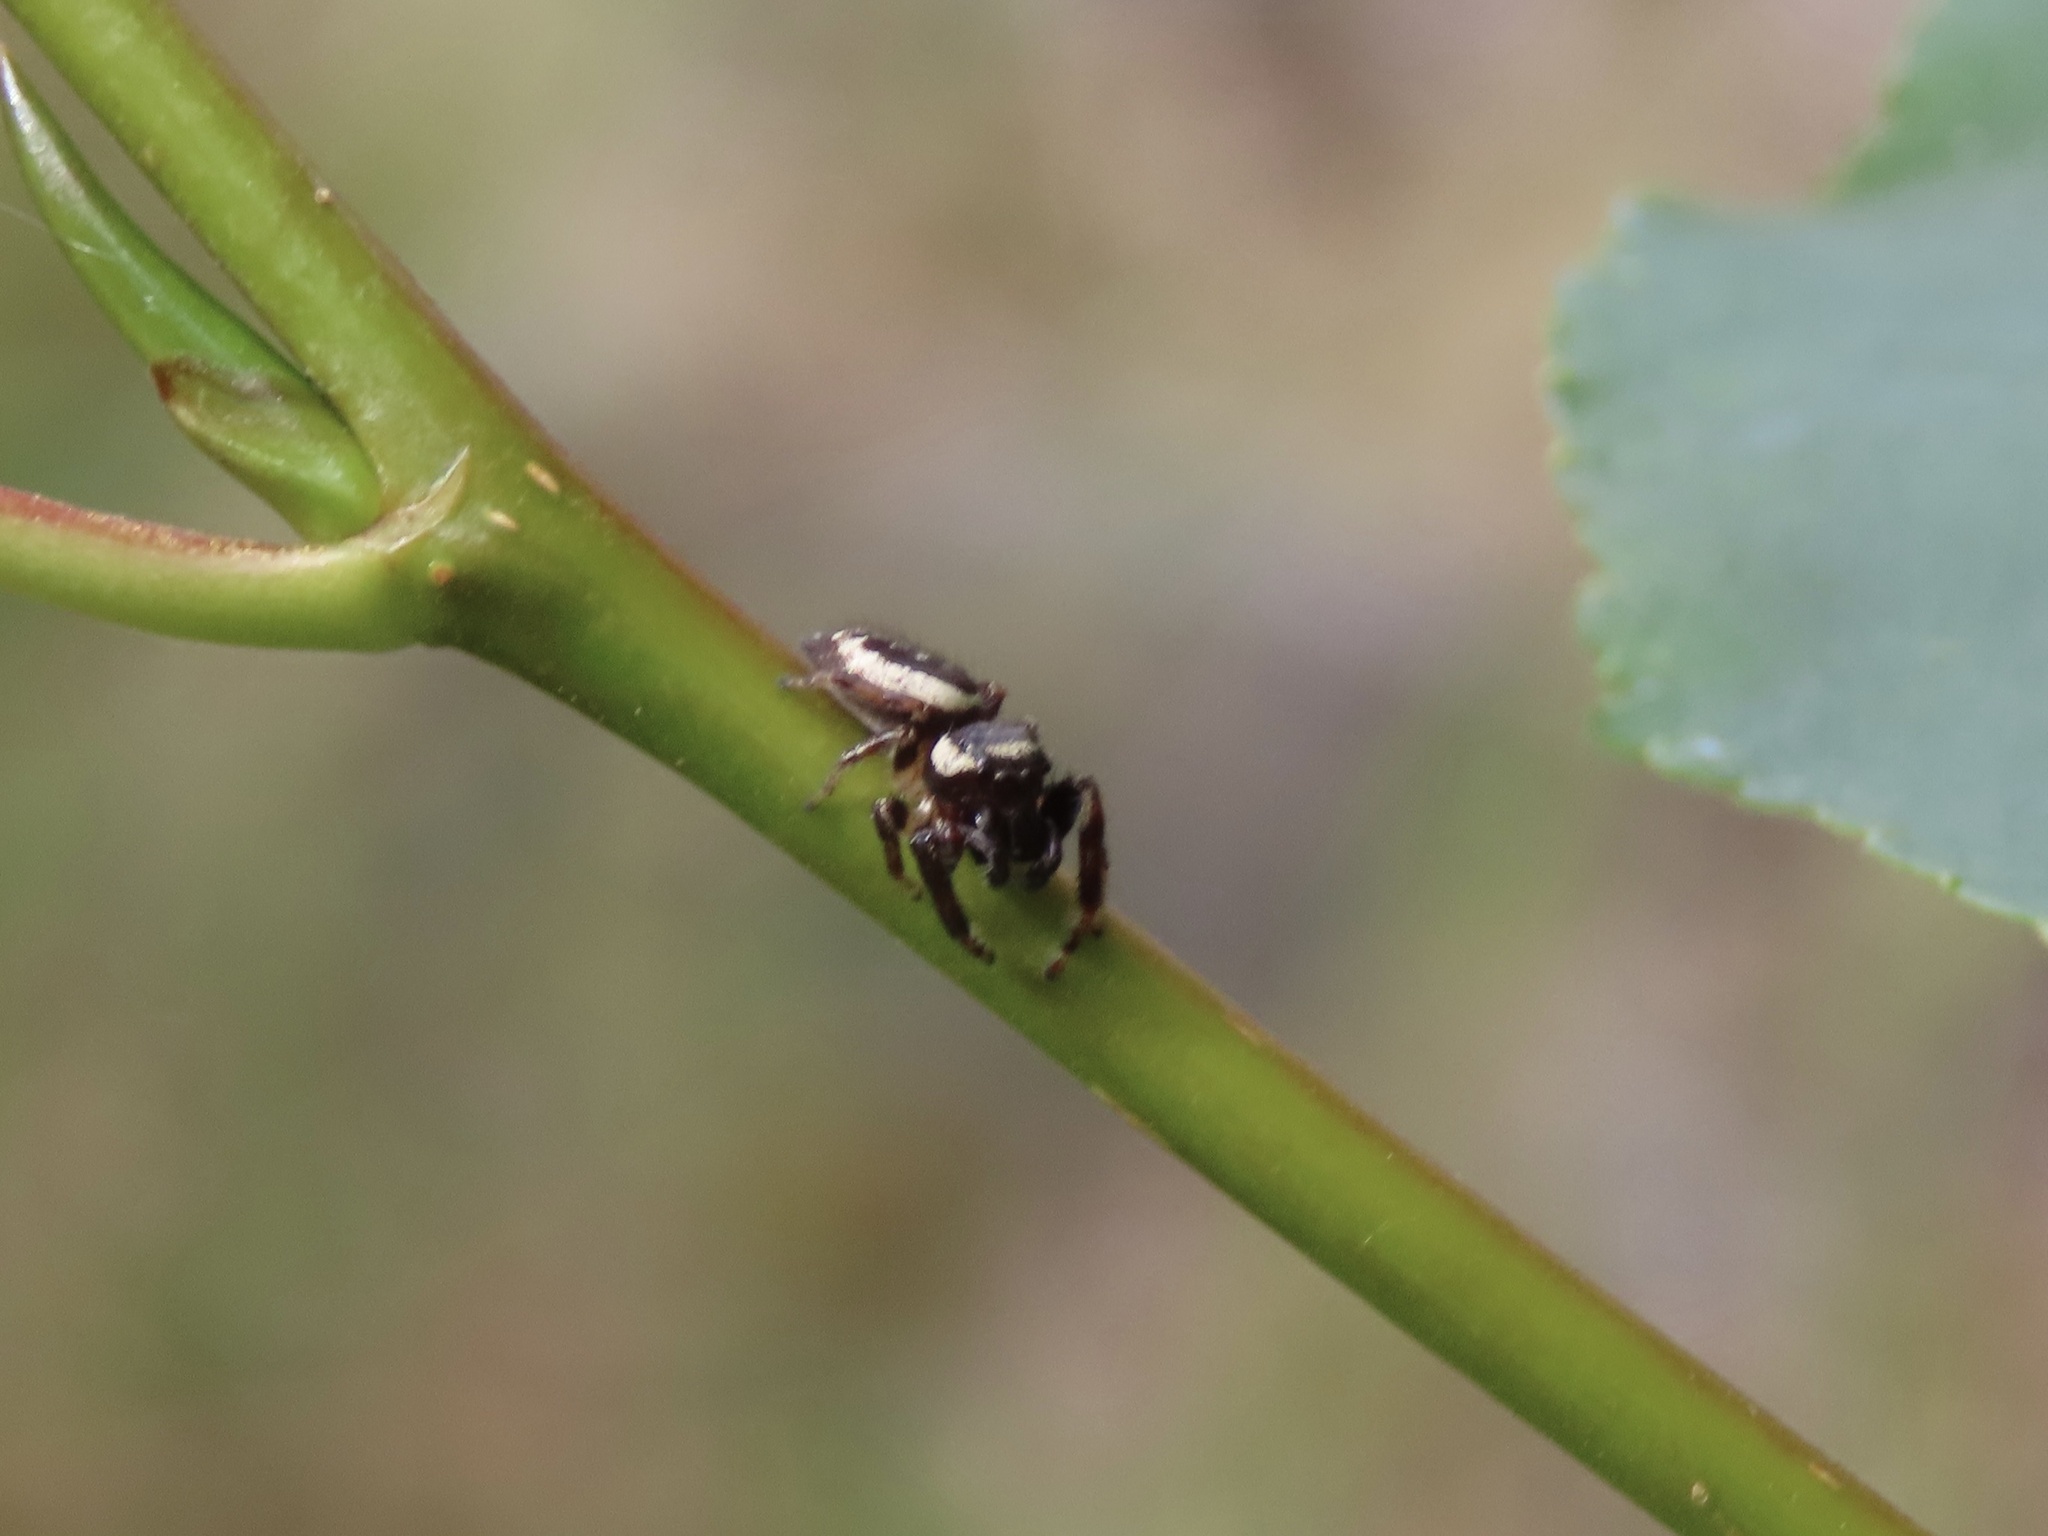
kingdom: Animalia
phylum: Arthropoda
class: Arachnida
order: Araneae
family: Salticidae
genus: Eris
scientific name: Eris militaris
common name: Bronze jumper
